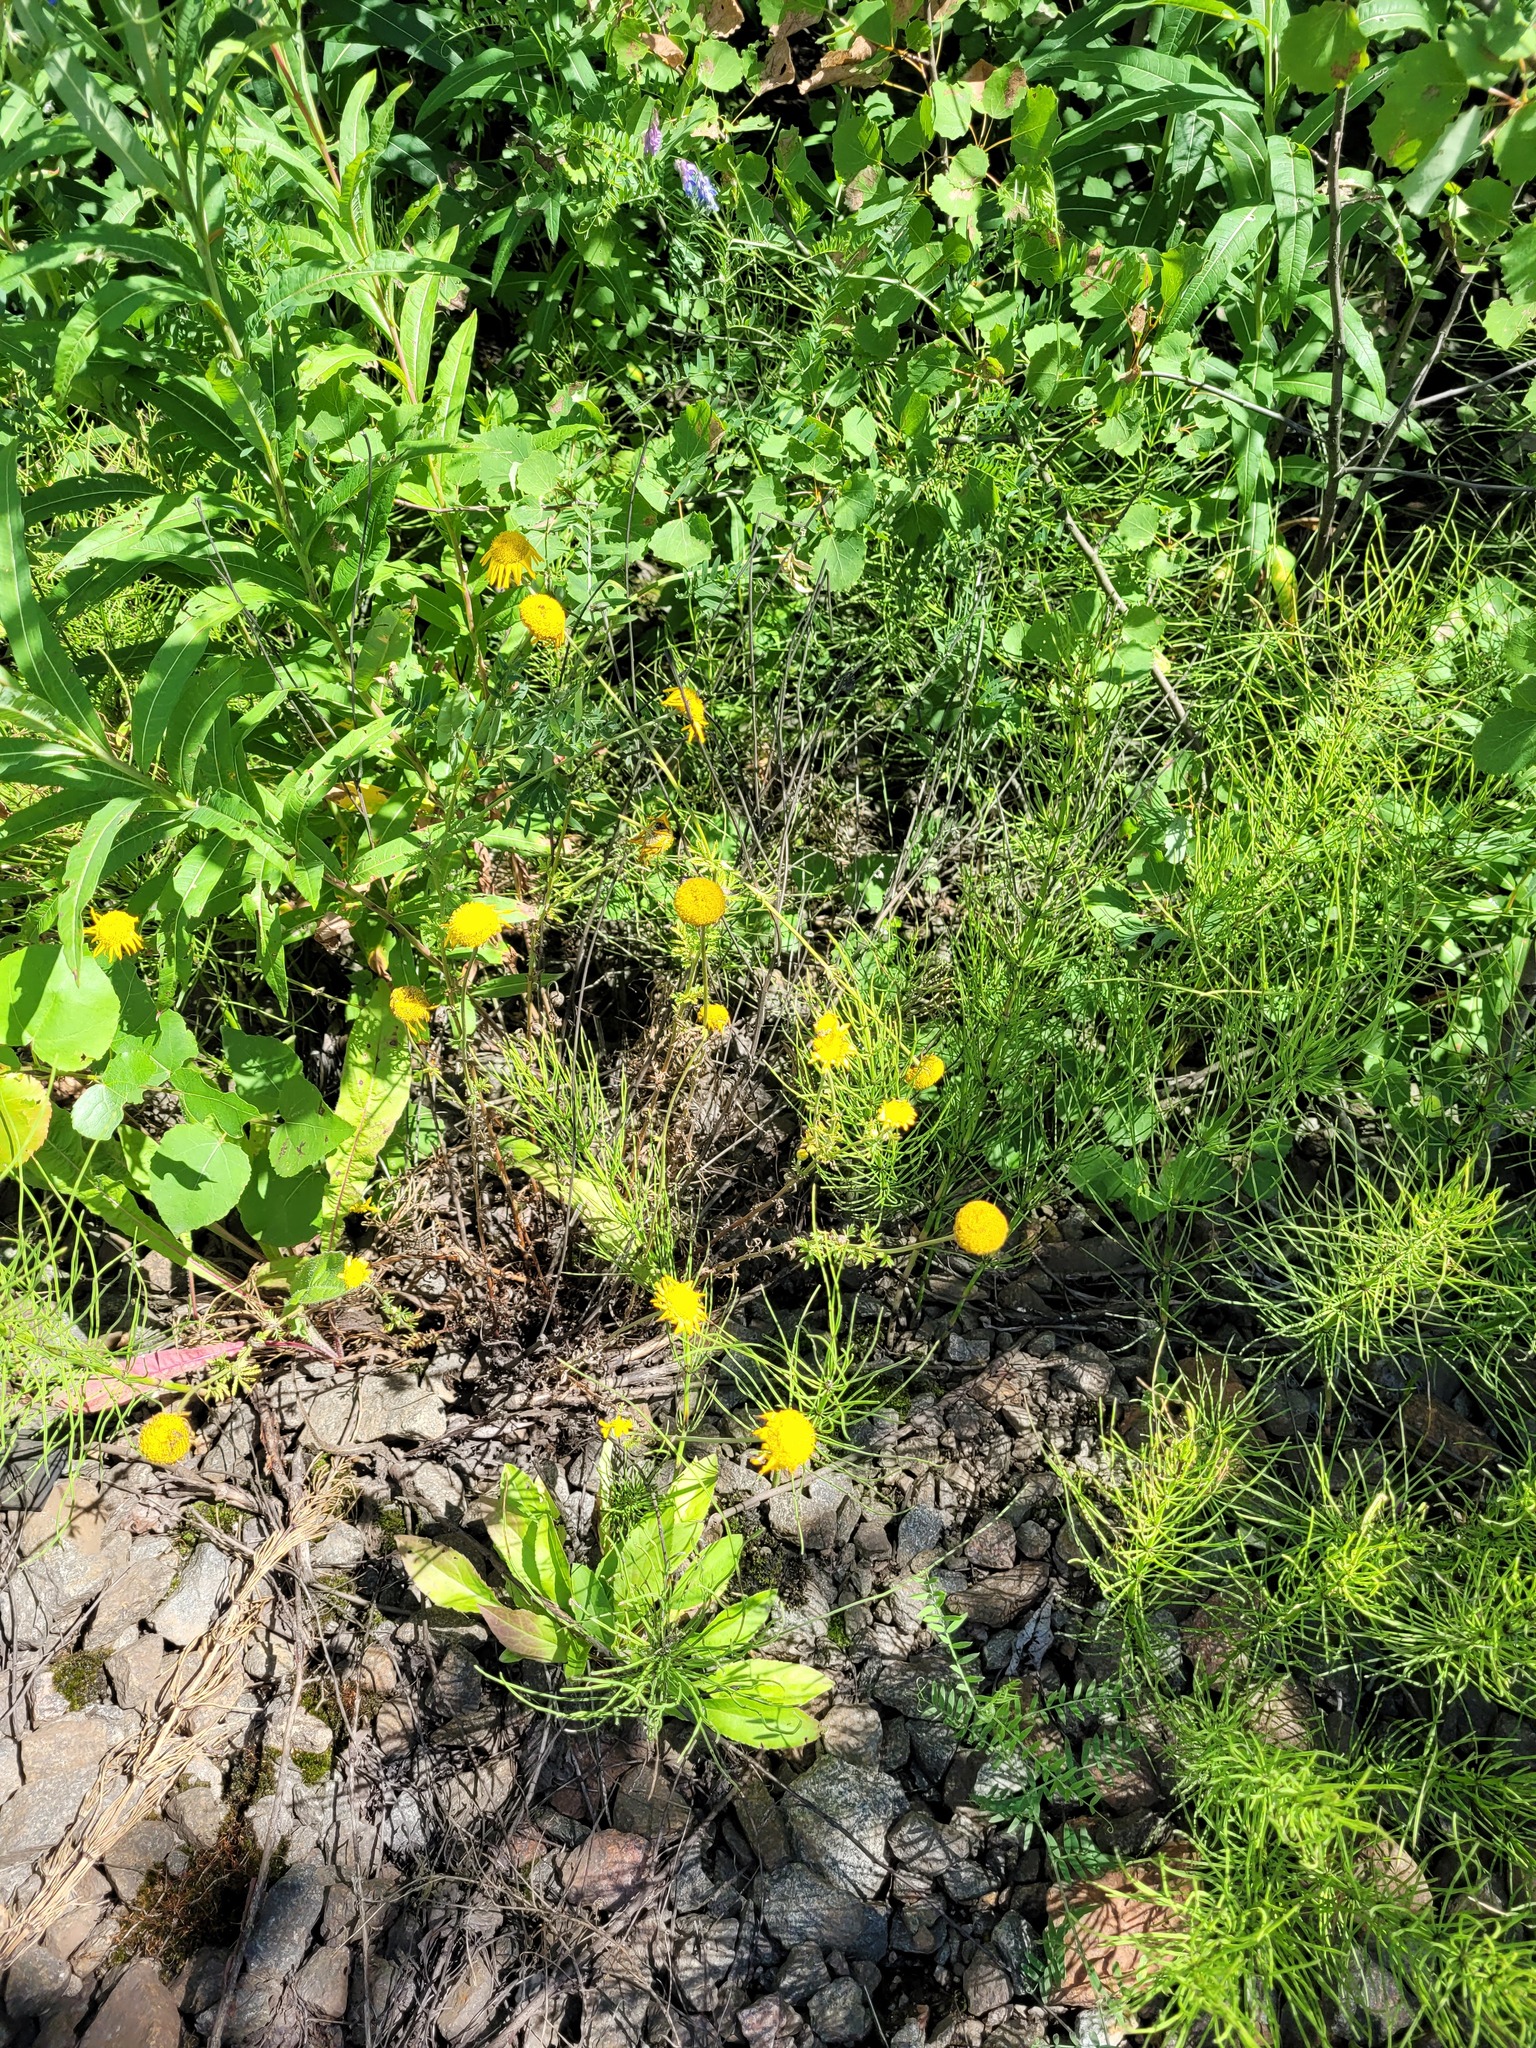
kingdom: Plantae
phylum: Tracheophyta
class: Magnoliopsida
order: Asterales
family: Asteraceae
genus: Cota
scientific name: Cota tinctoria
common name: Golden chamomile
